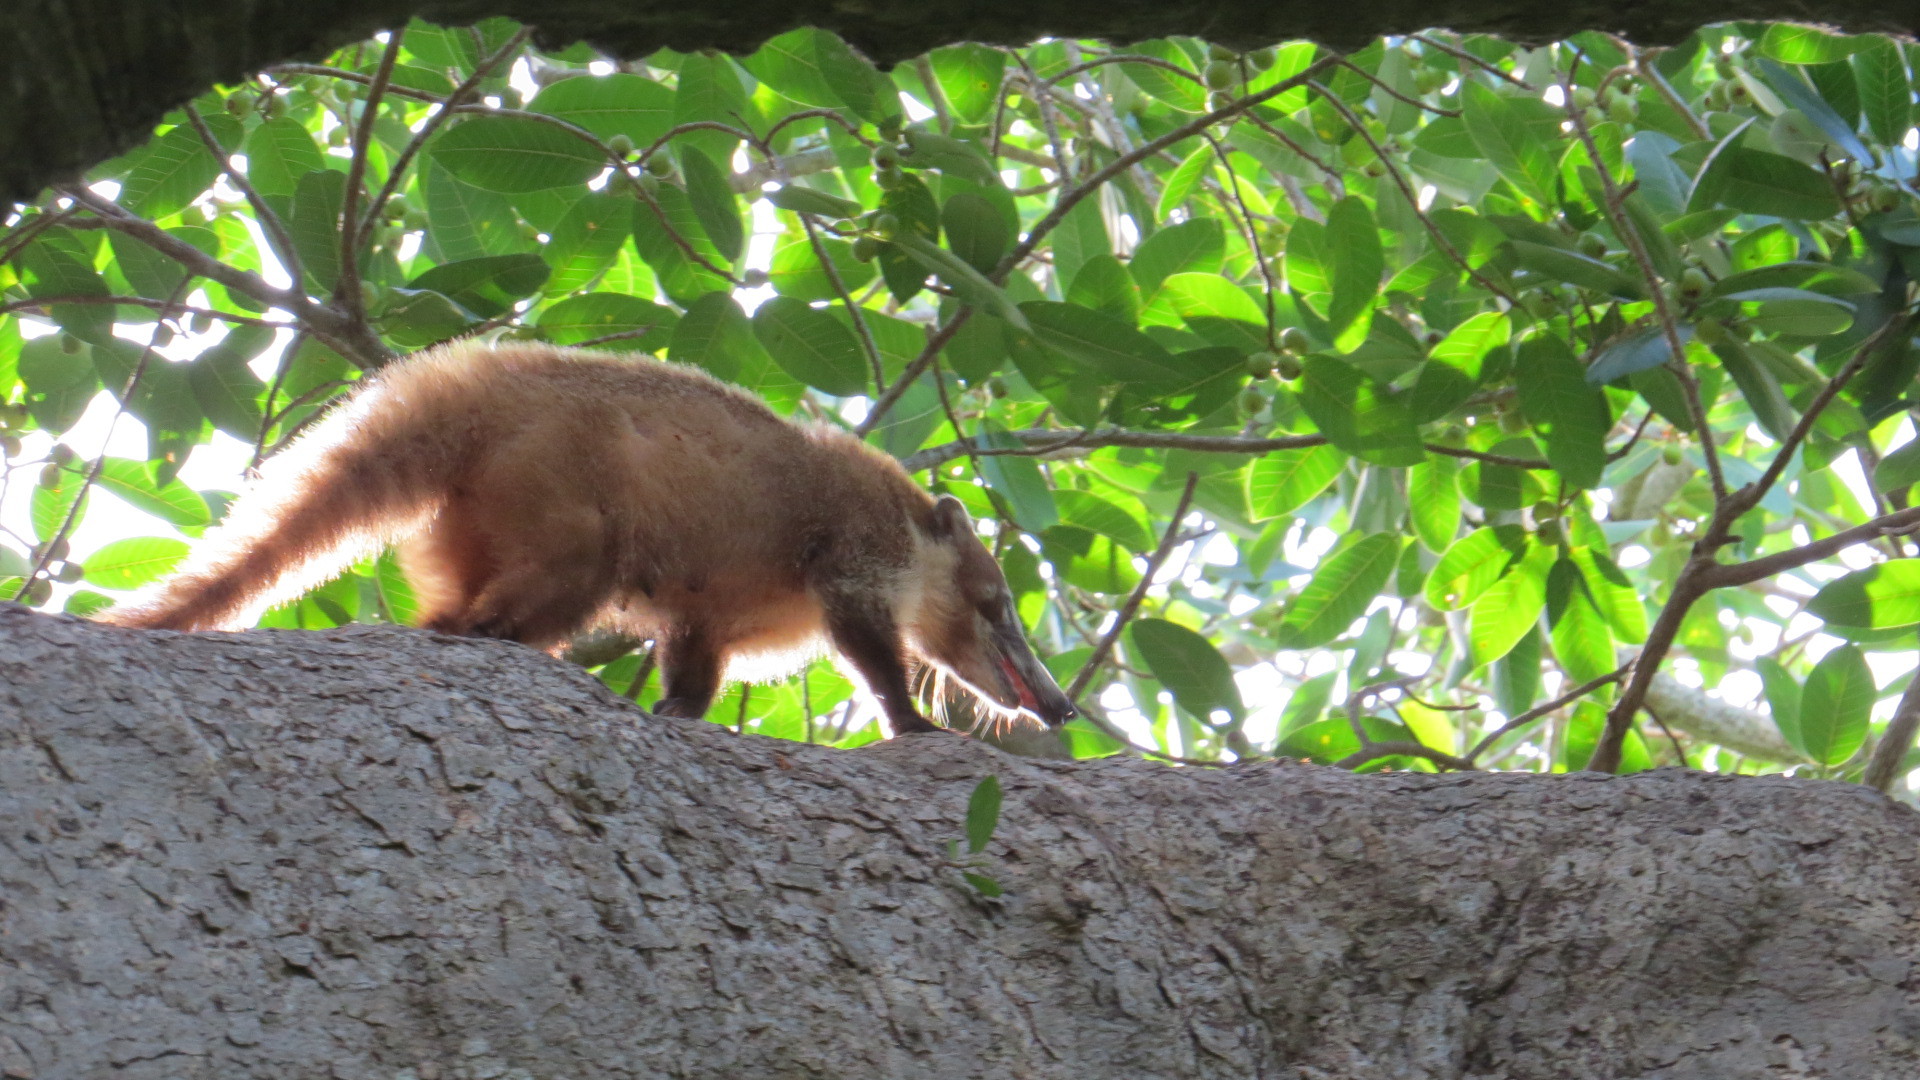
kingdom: Animalia
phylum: Chordata
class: Mammalia
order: Carnivora
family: Procyonidae
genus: Nasua
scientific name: Nasua narica
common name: White-nosed coati
